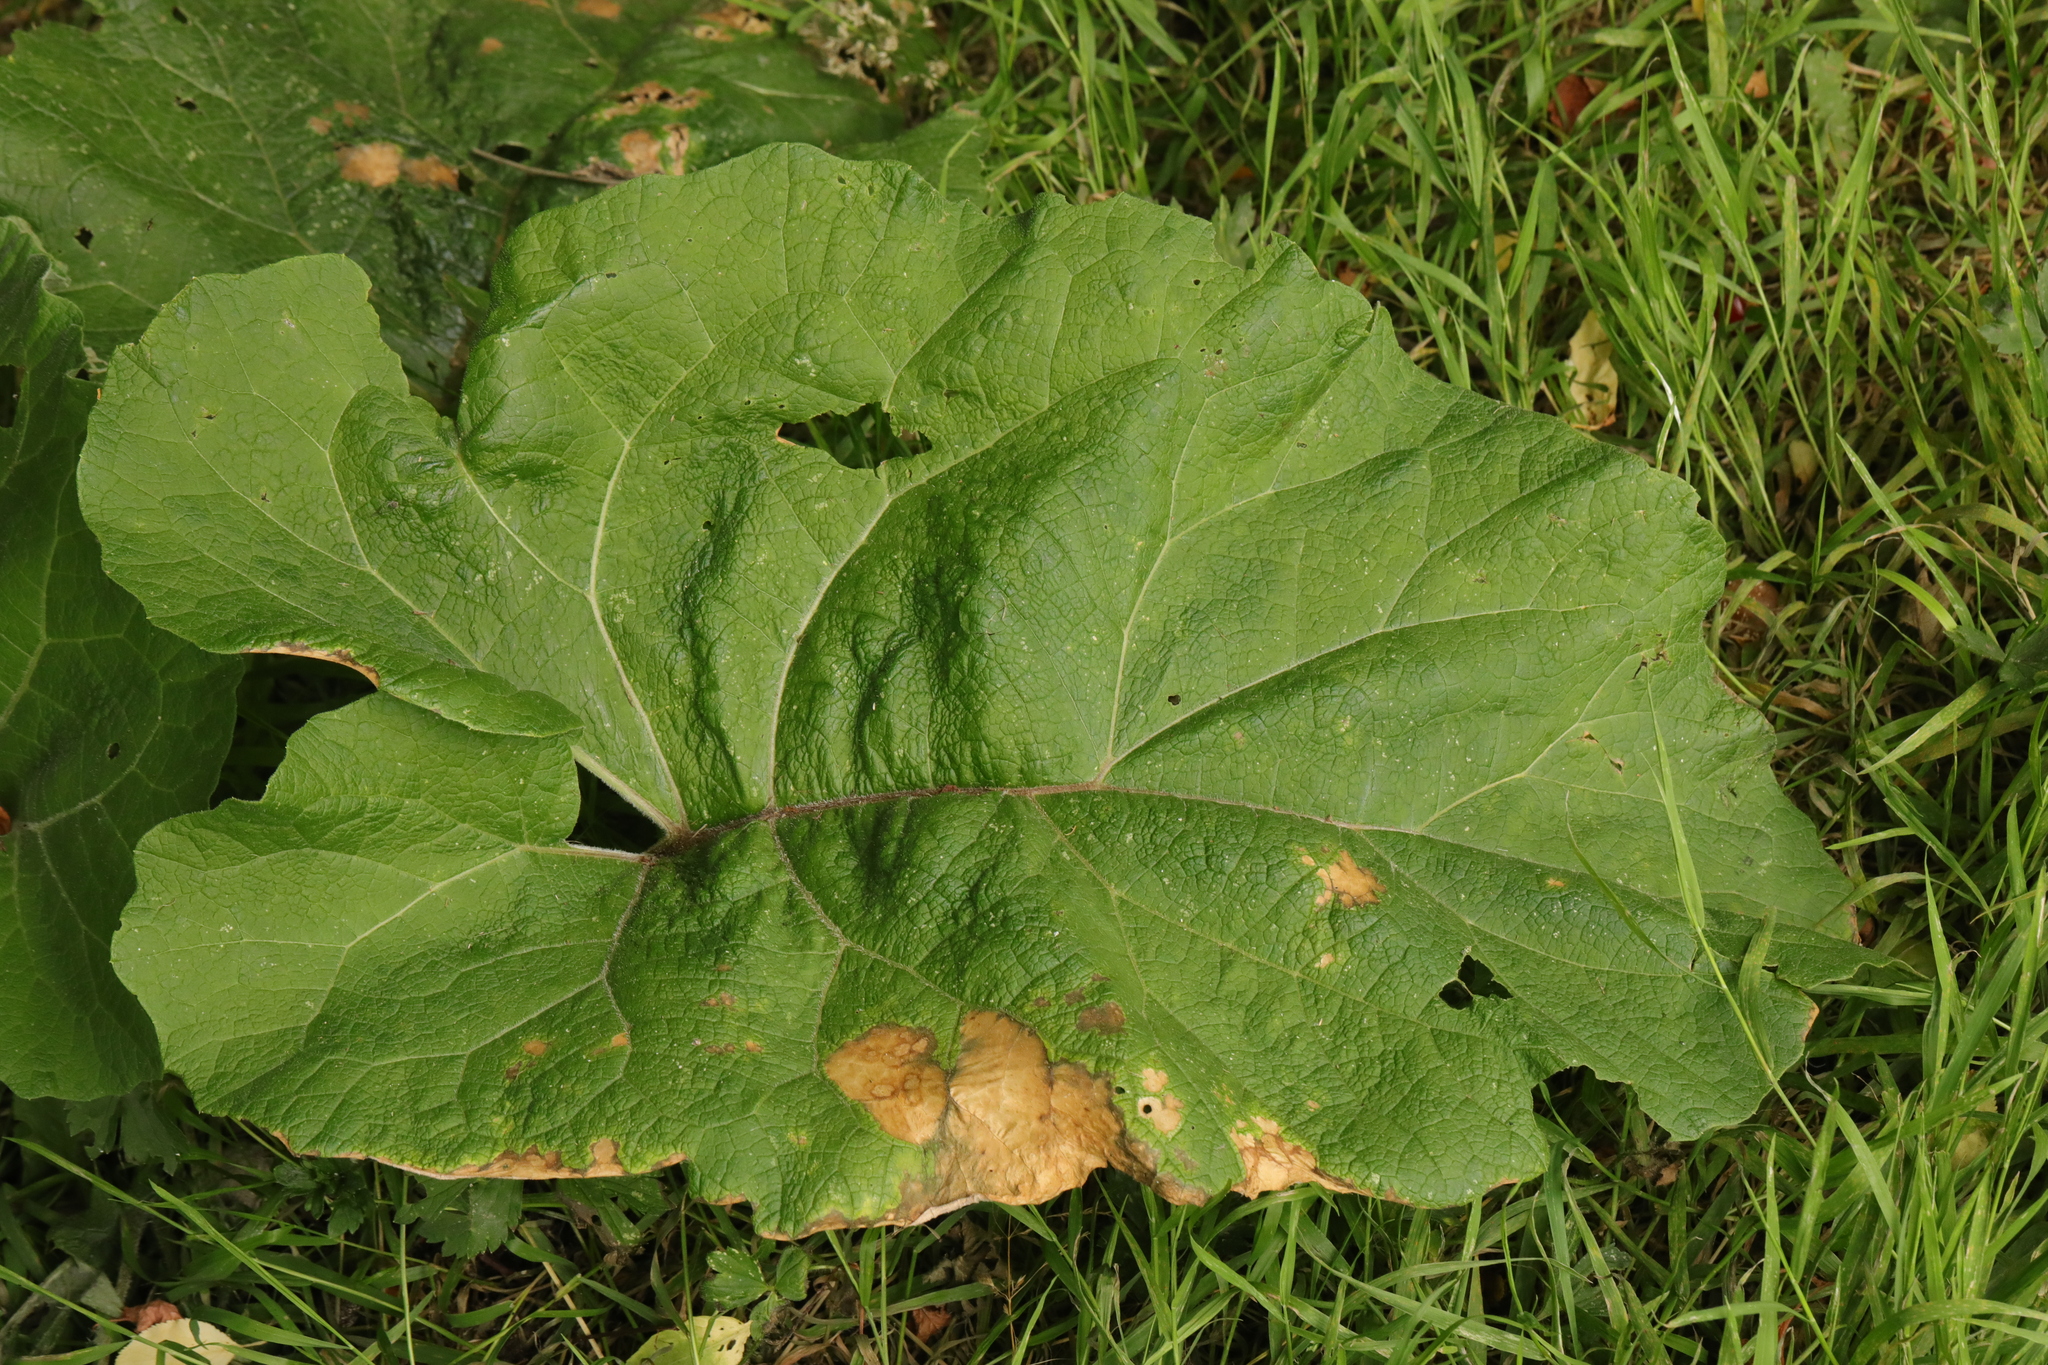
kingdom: Plantae
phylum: Tracheophyta
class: Magnoliopsida
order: Asterales
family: Asteraceae
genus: Arctium
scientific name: Arctium minus
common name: Lesser burdock
